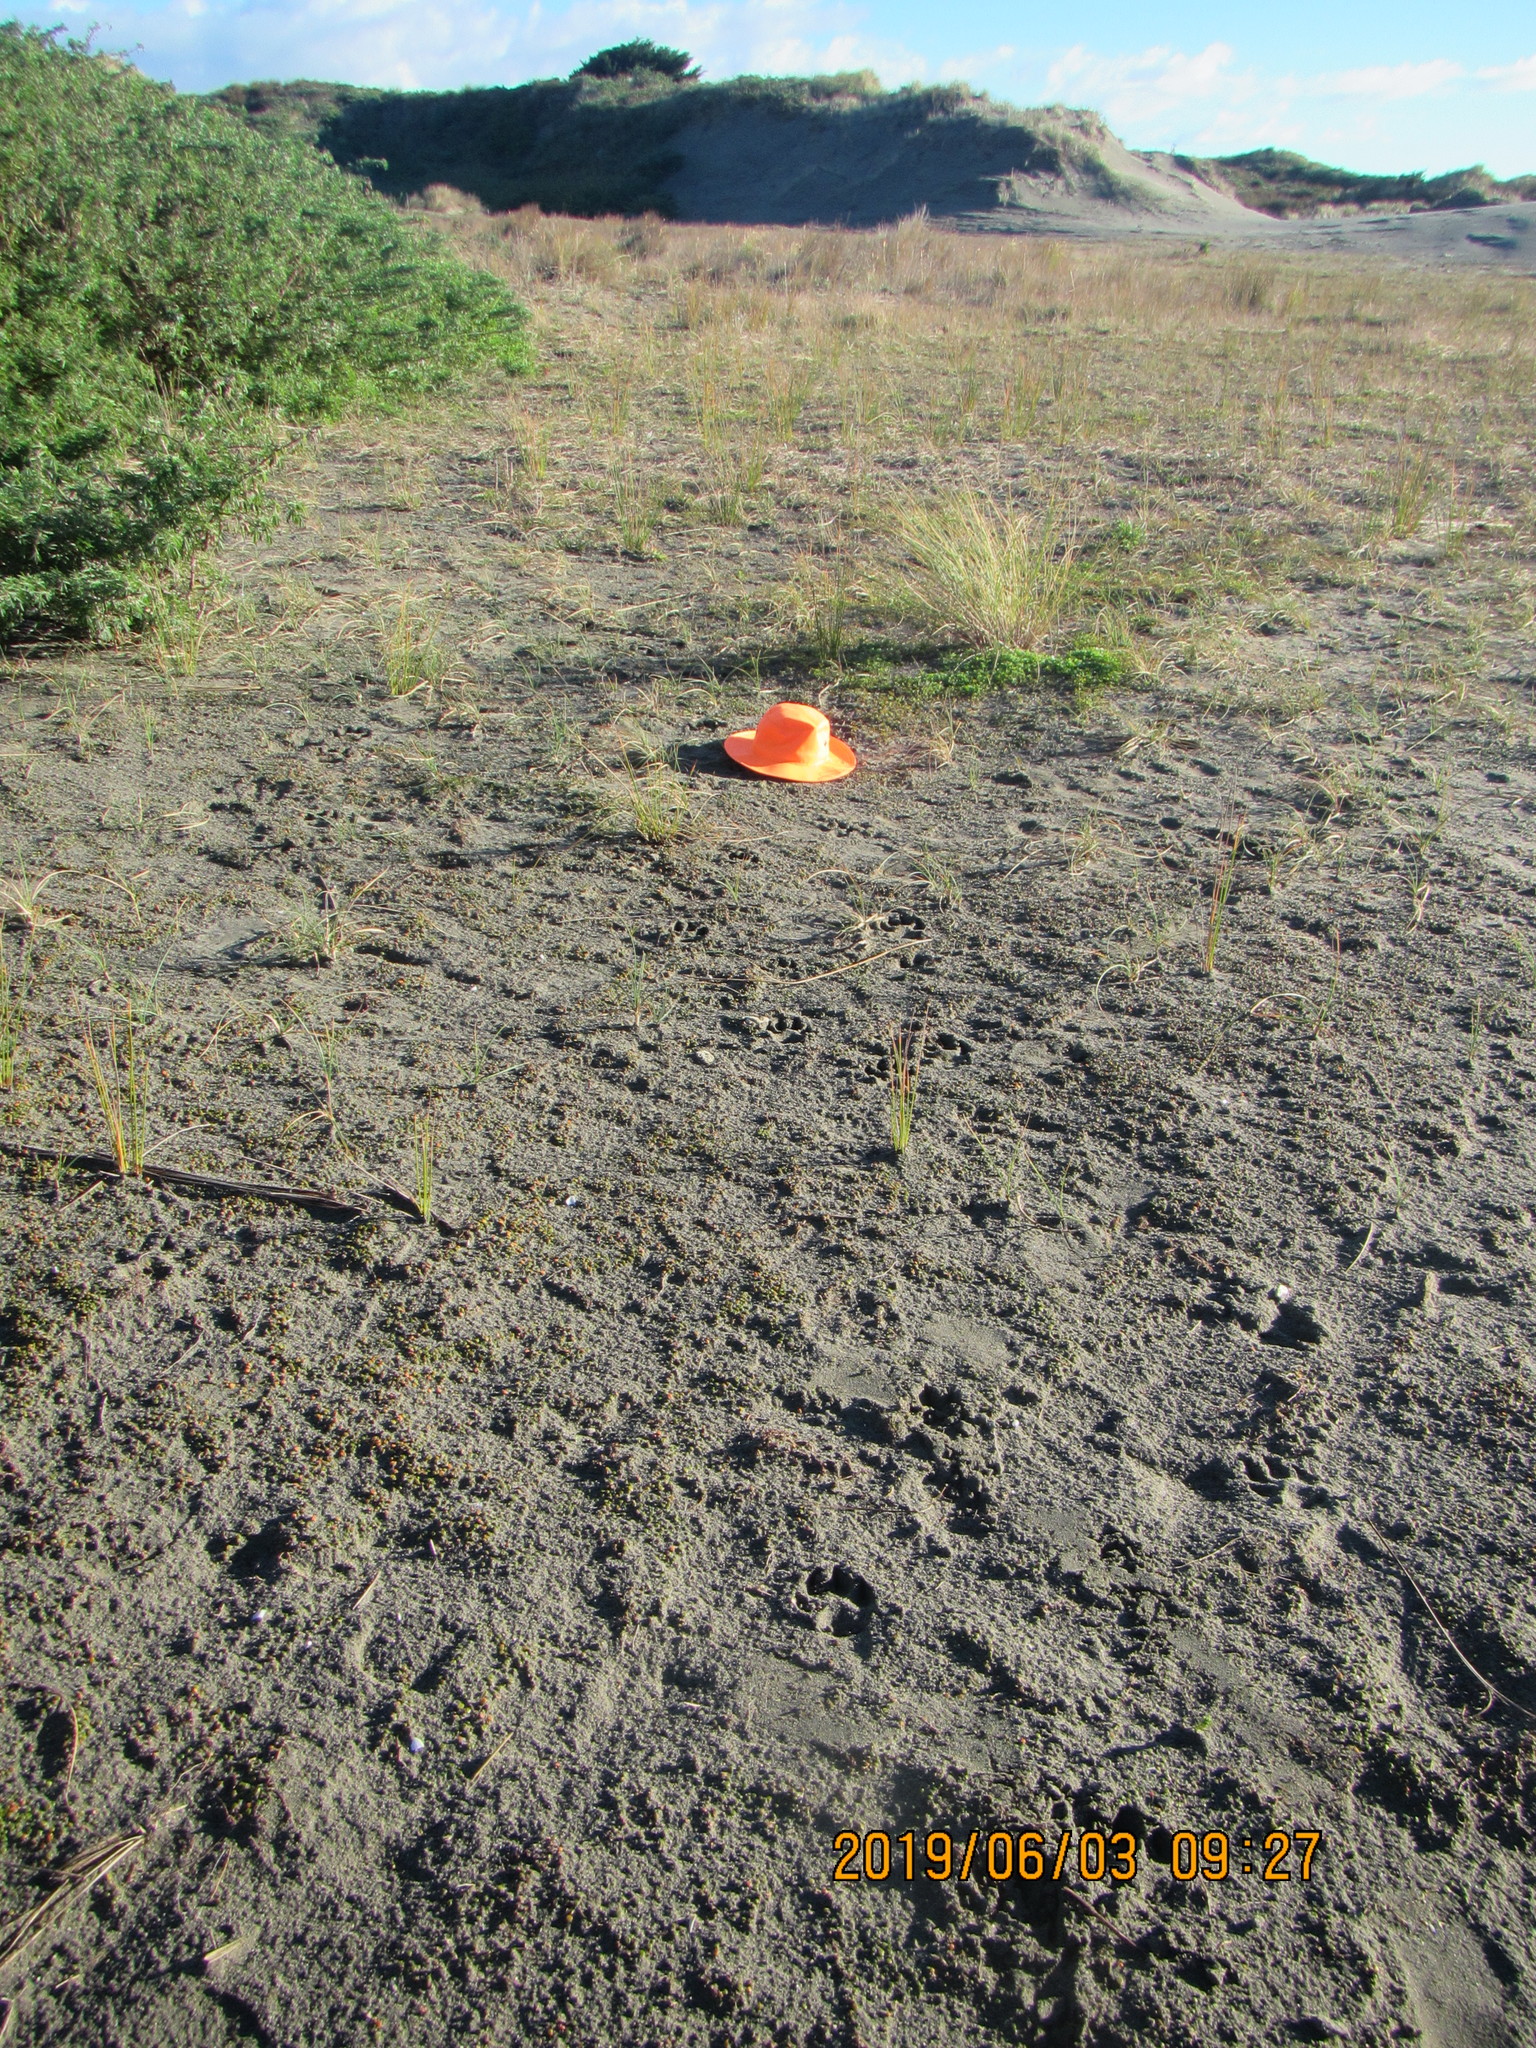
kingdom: Plantae
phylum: Tracheophyta
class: Magnoliopsida
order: Asterales
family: Goodeniaceae
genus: Goodenia
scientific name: Goodenia heenanii
